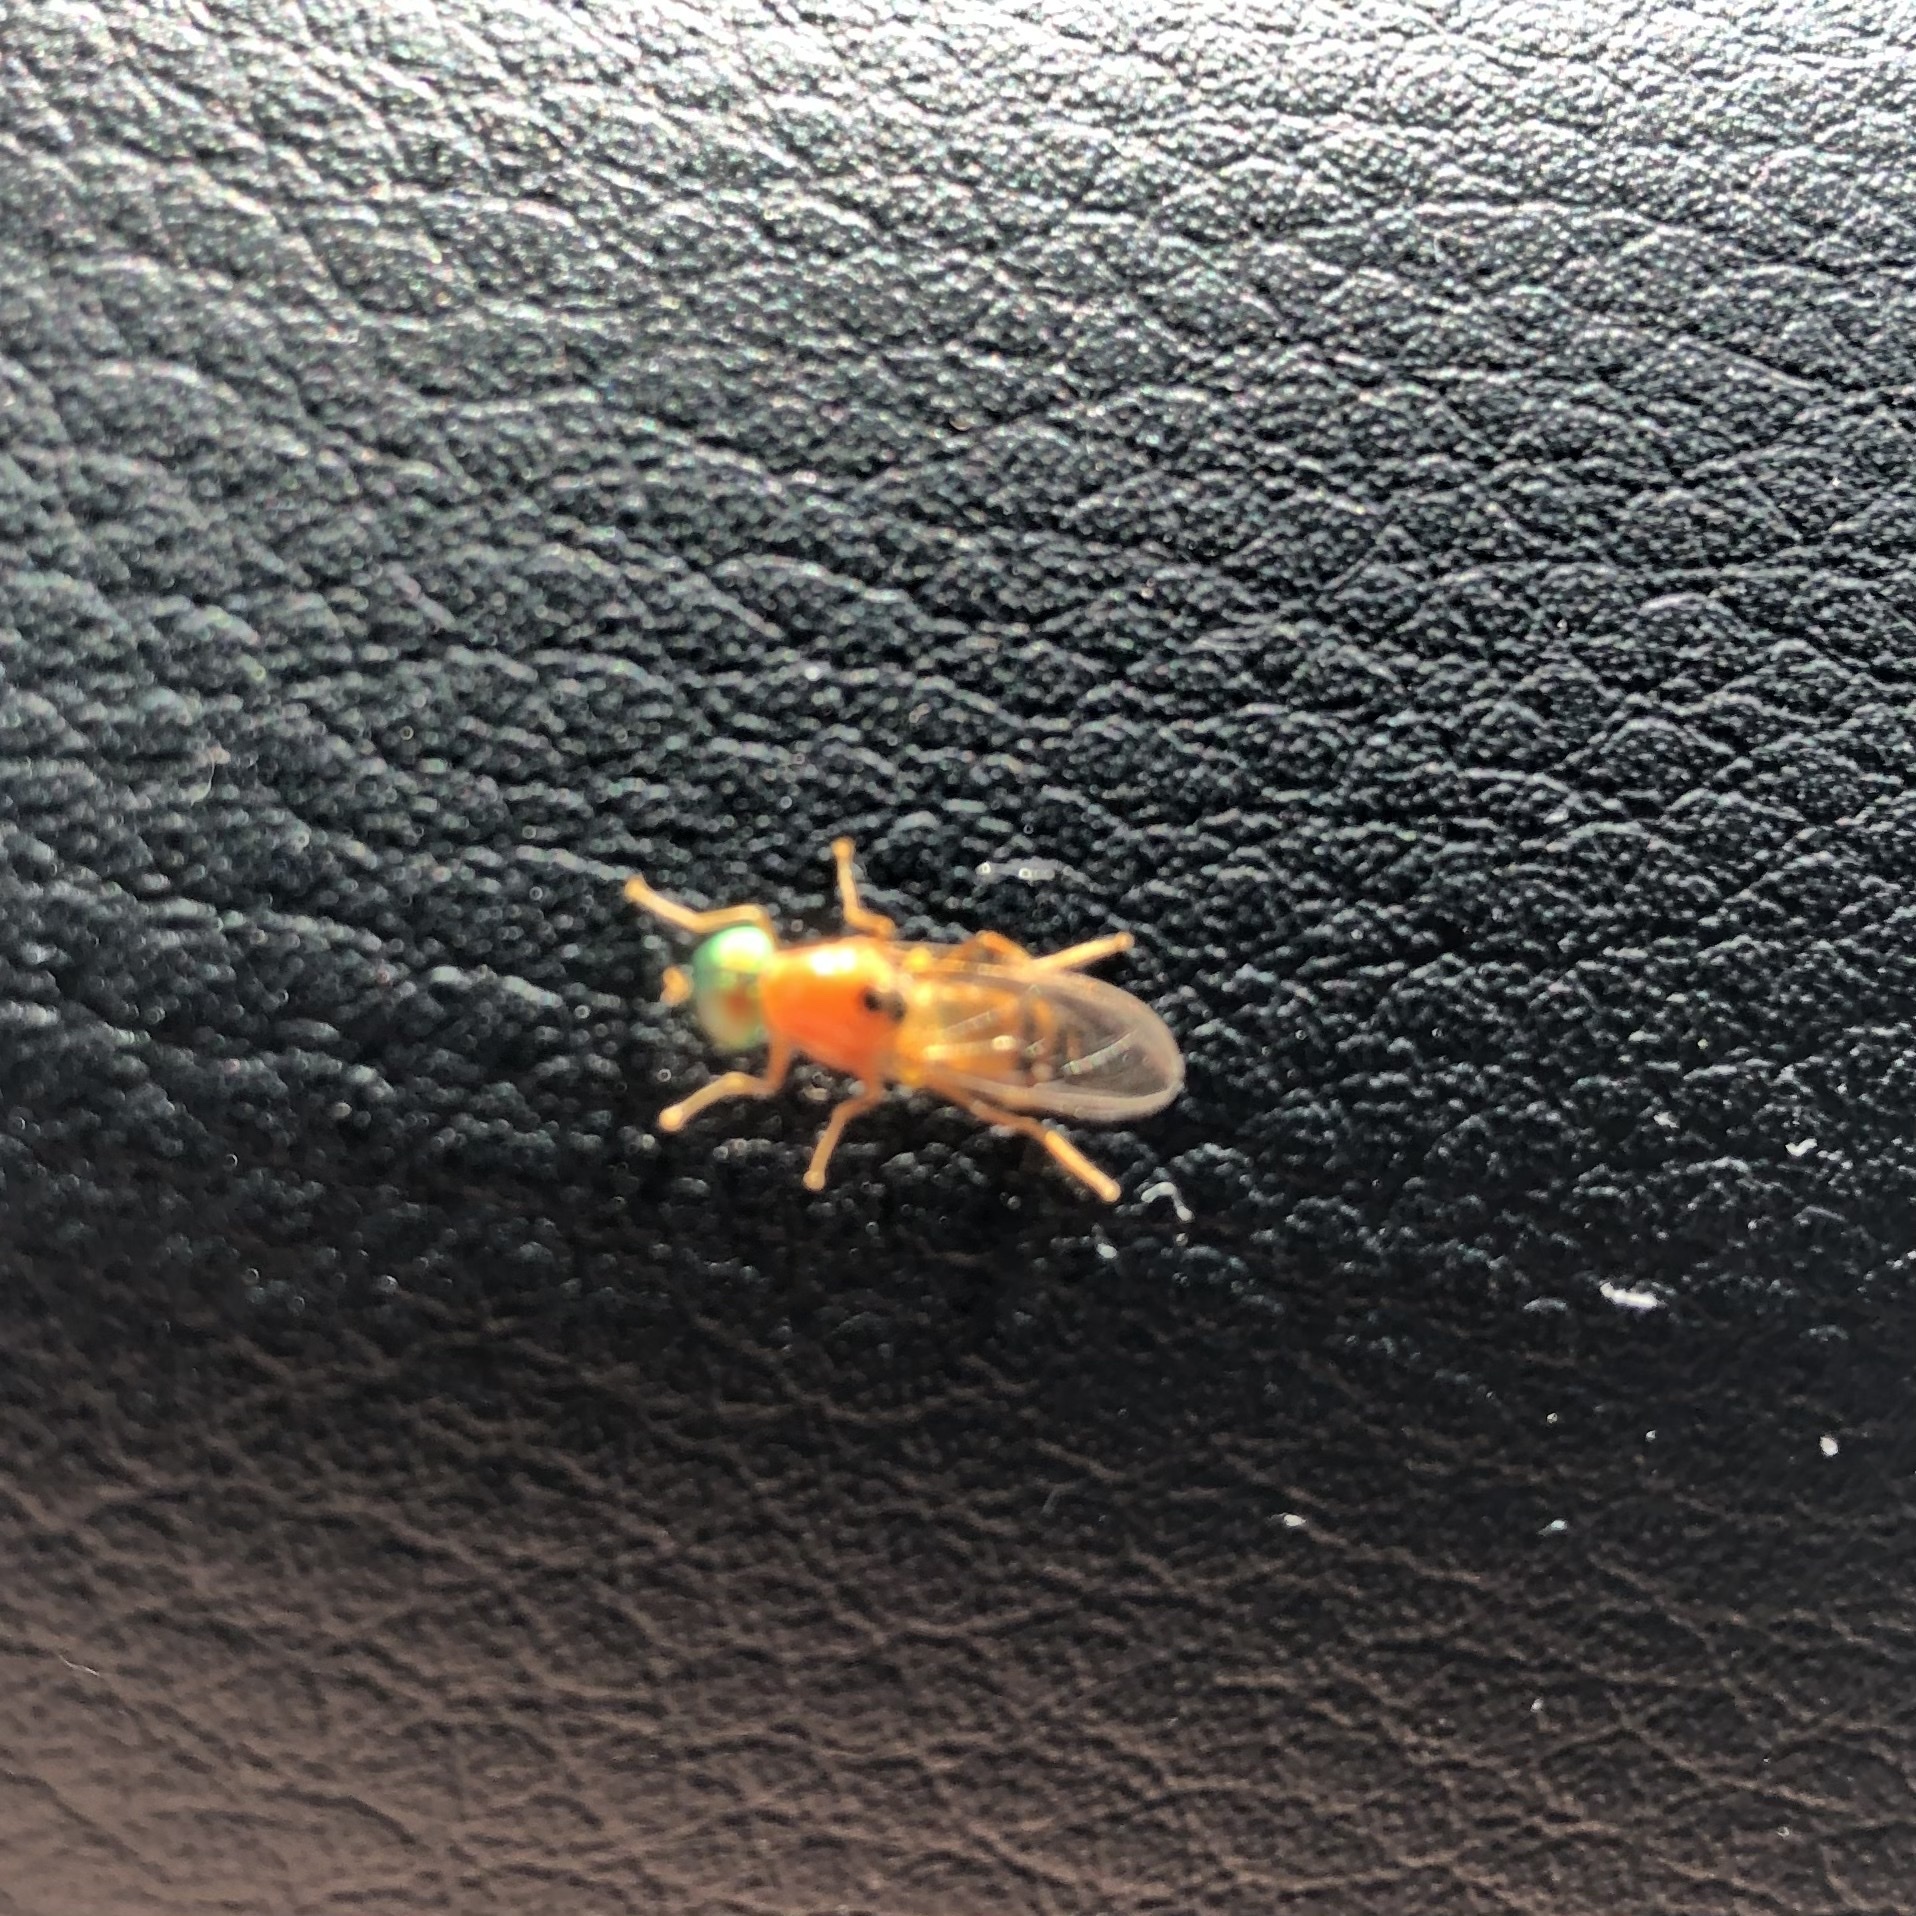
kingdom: Animalia
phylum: Arthropoda
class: Insecta
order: Diptera
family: Stratiomyidae
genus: Sargus
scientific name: Sargus elegans
